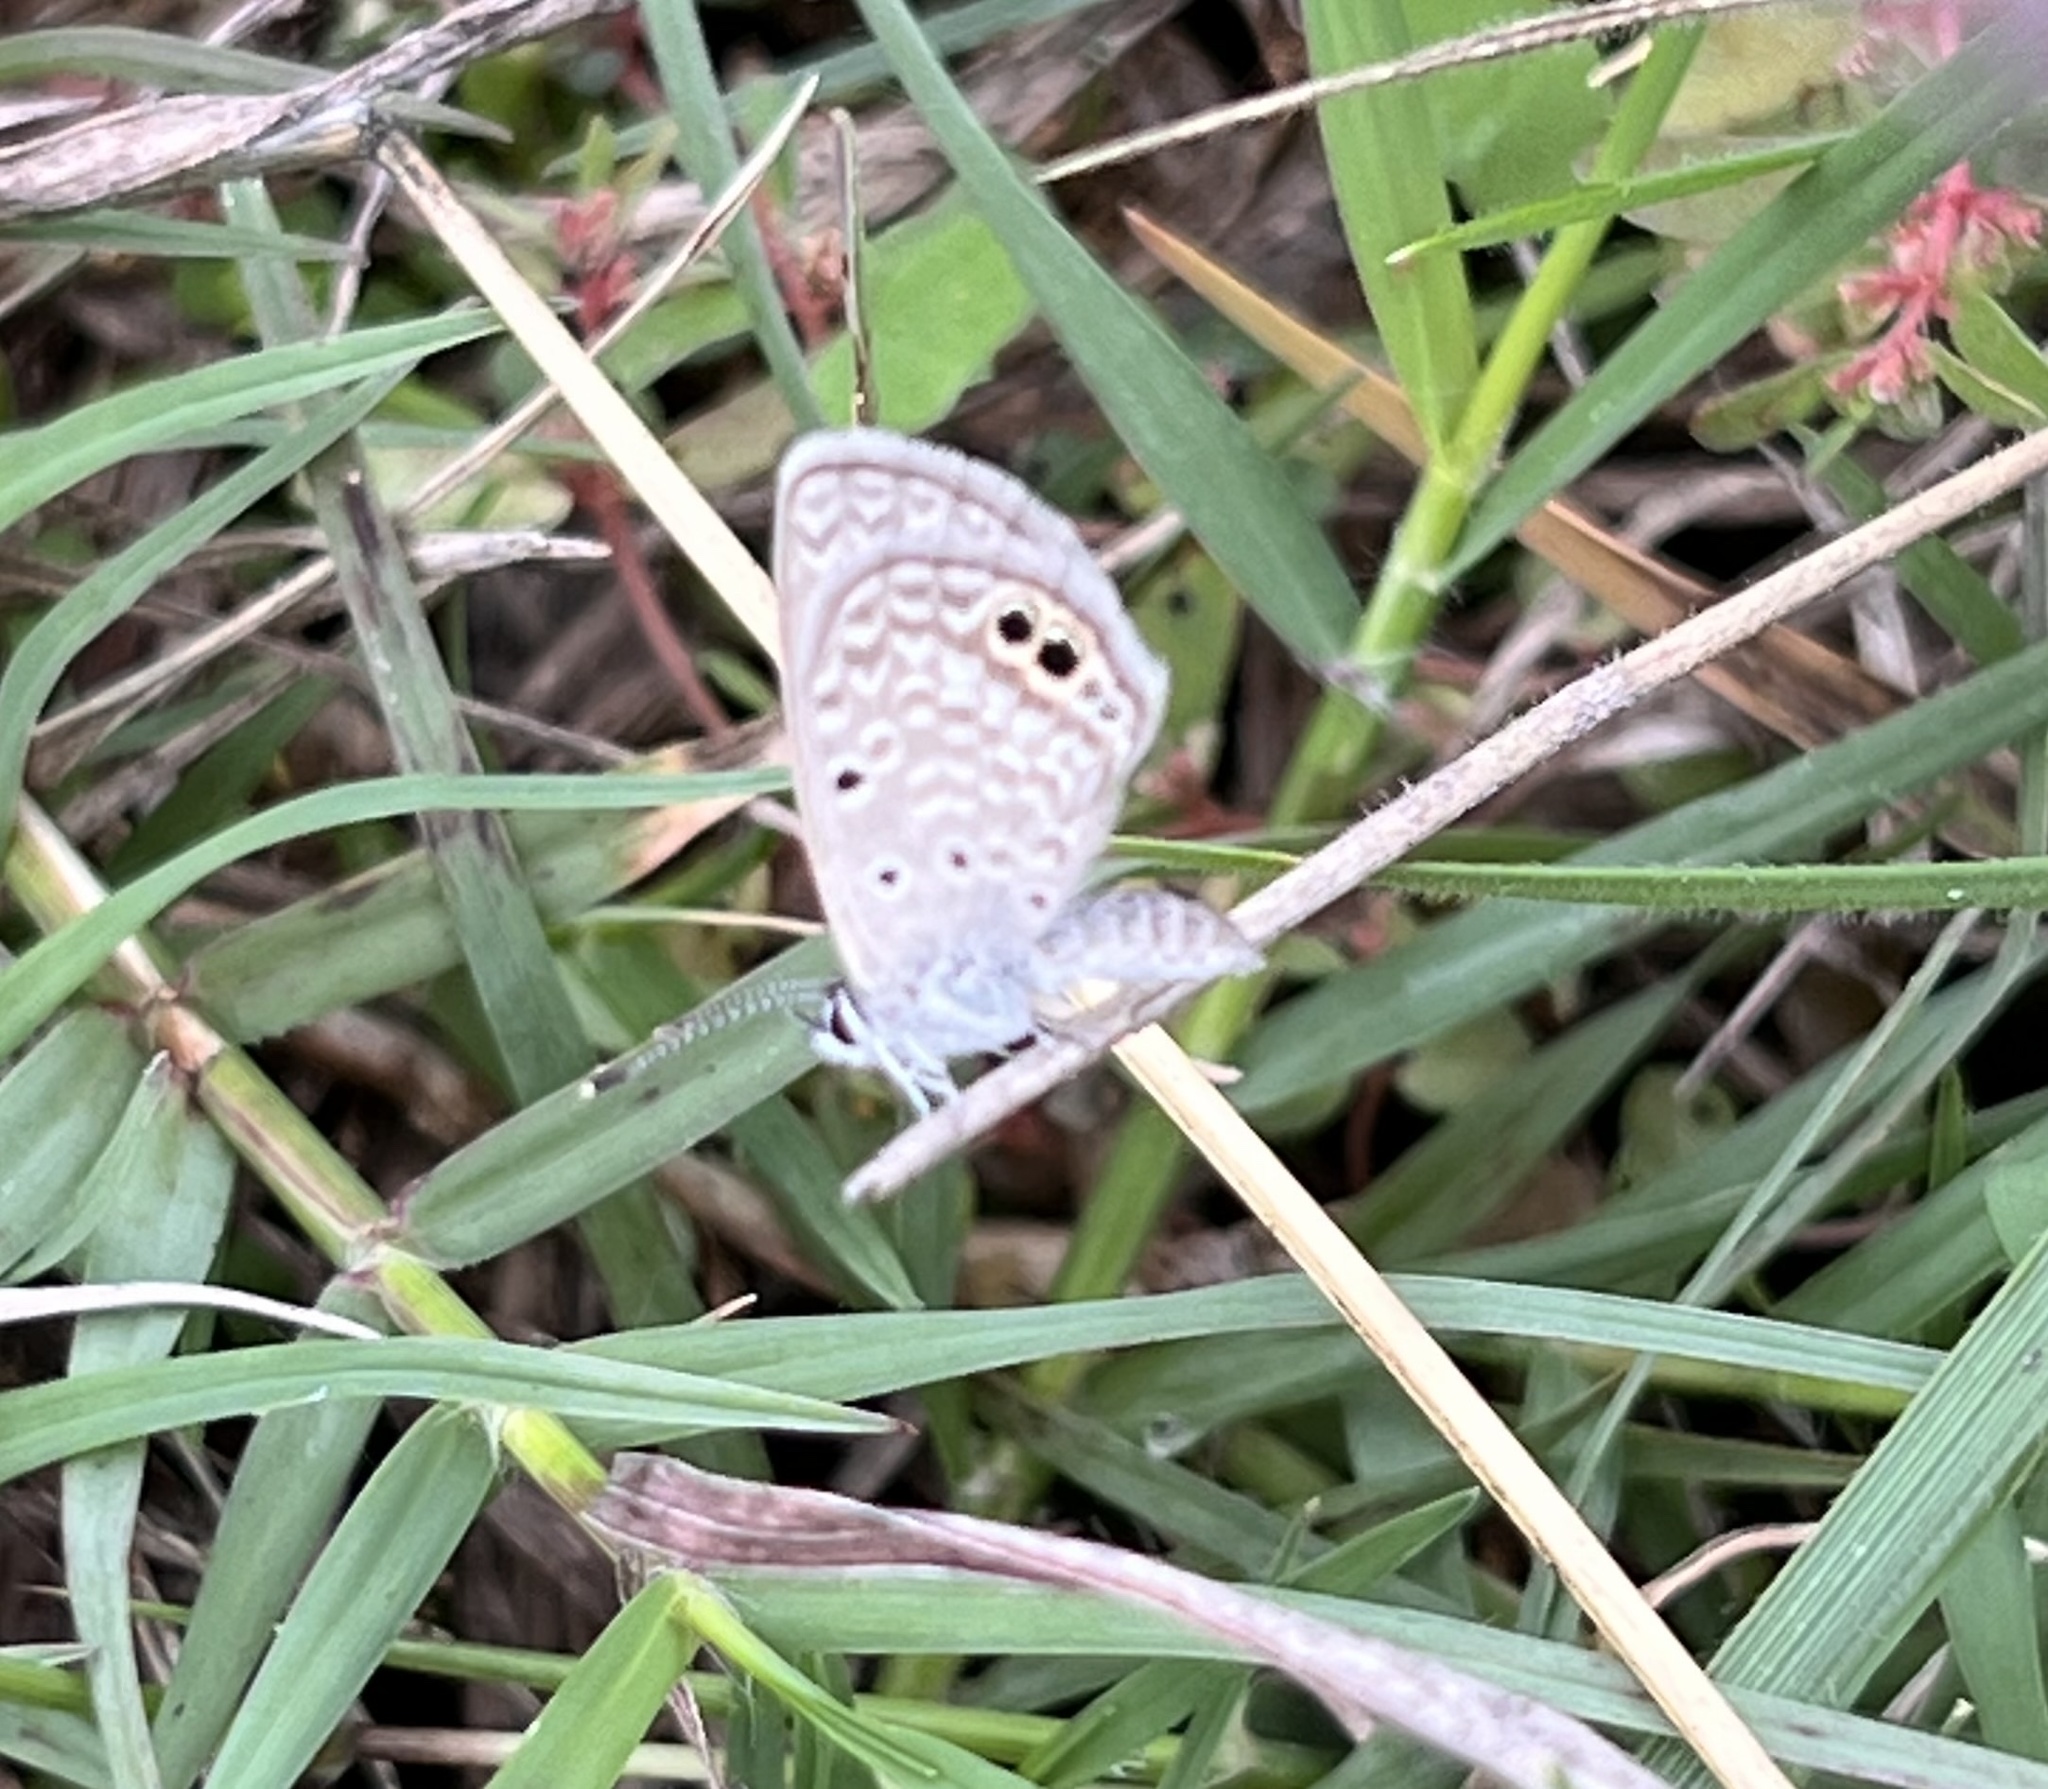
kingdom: Animalia
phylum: Arthropoda
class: Insecta
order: Lepidoptera
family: Lycaenidae
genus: Hemiargus
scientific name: Hemiargus ceraunus
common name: Ceraunus blue
